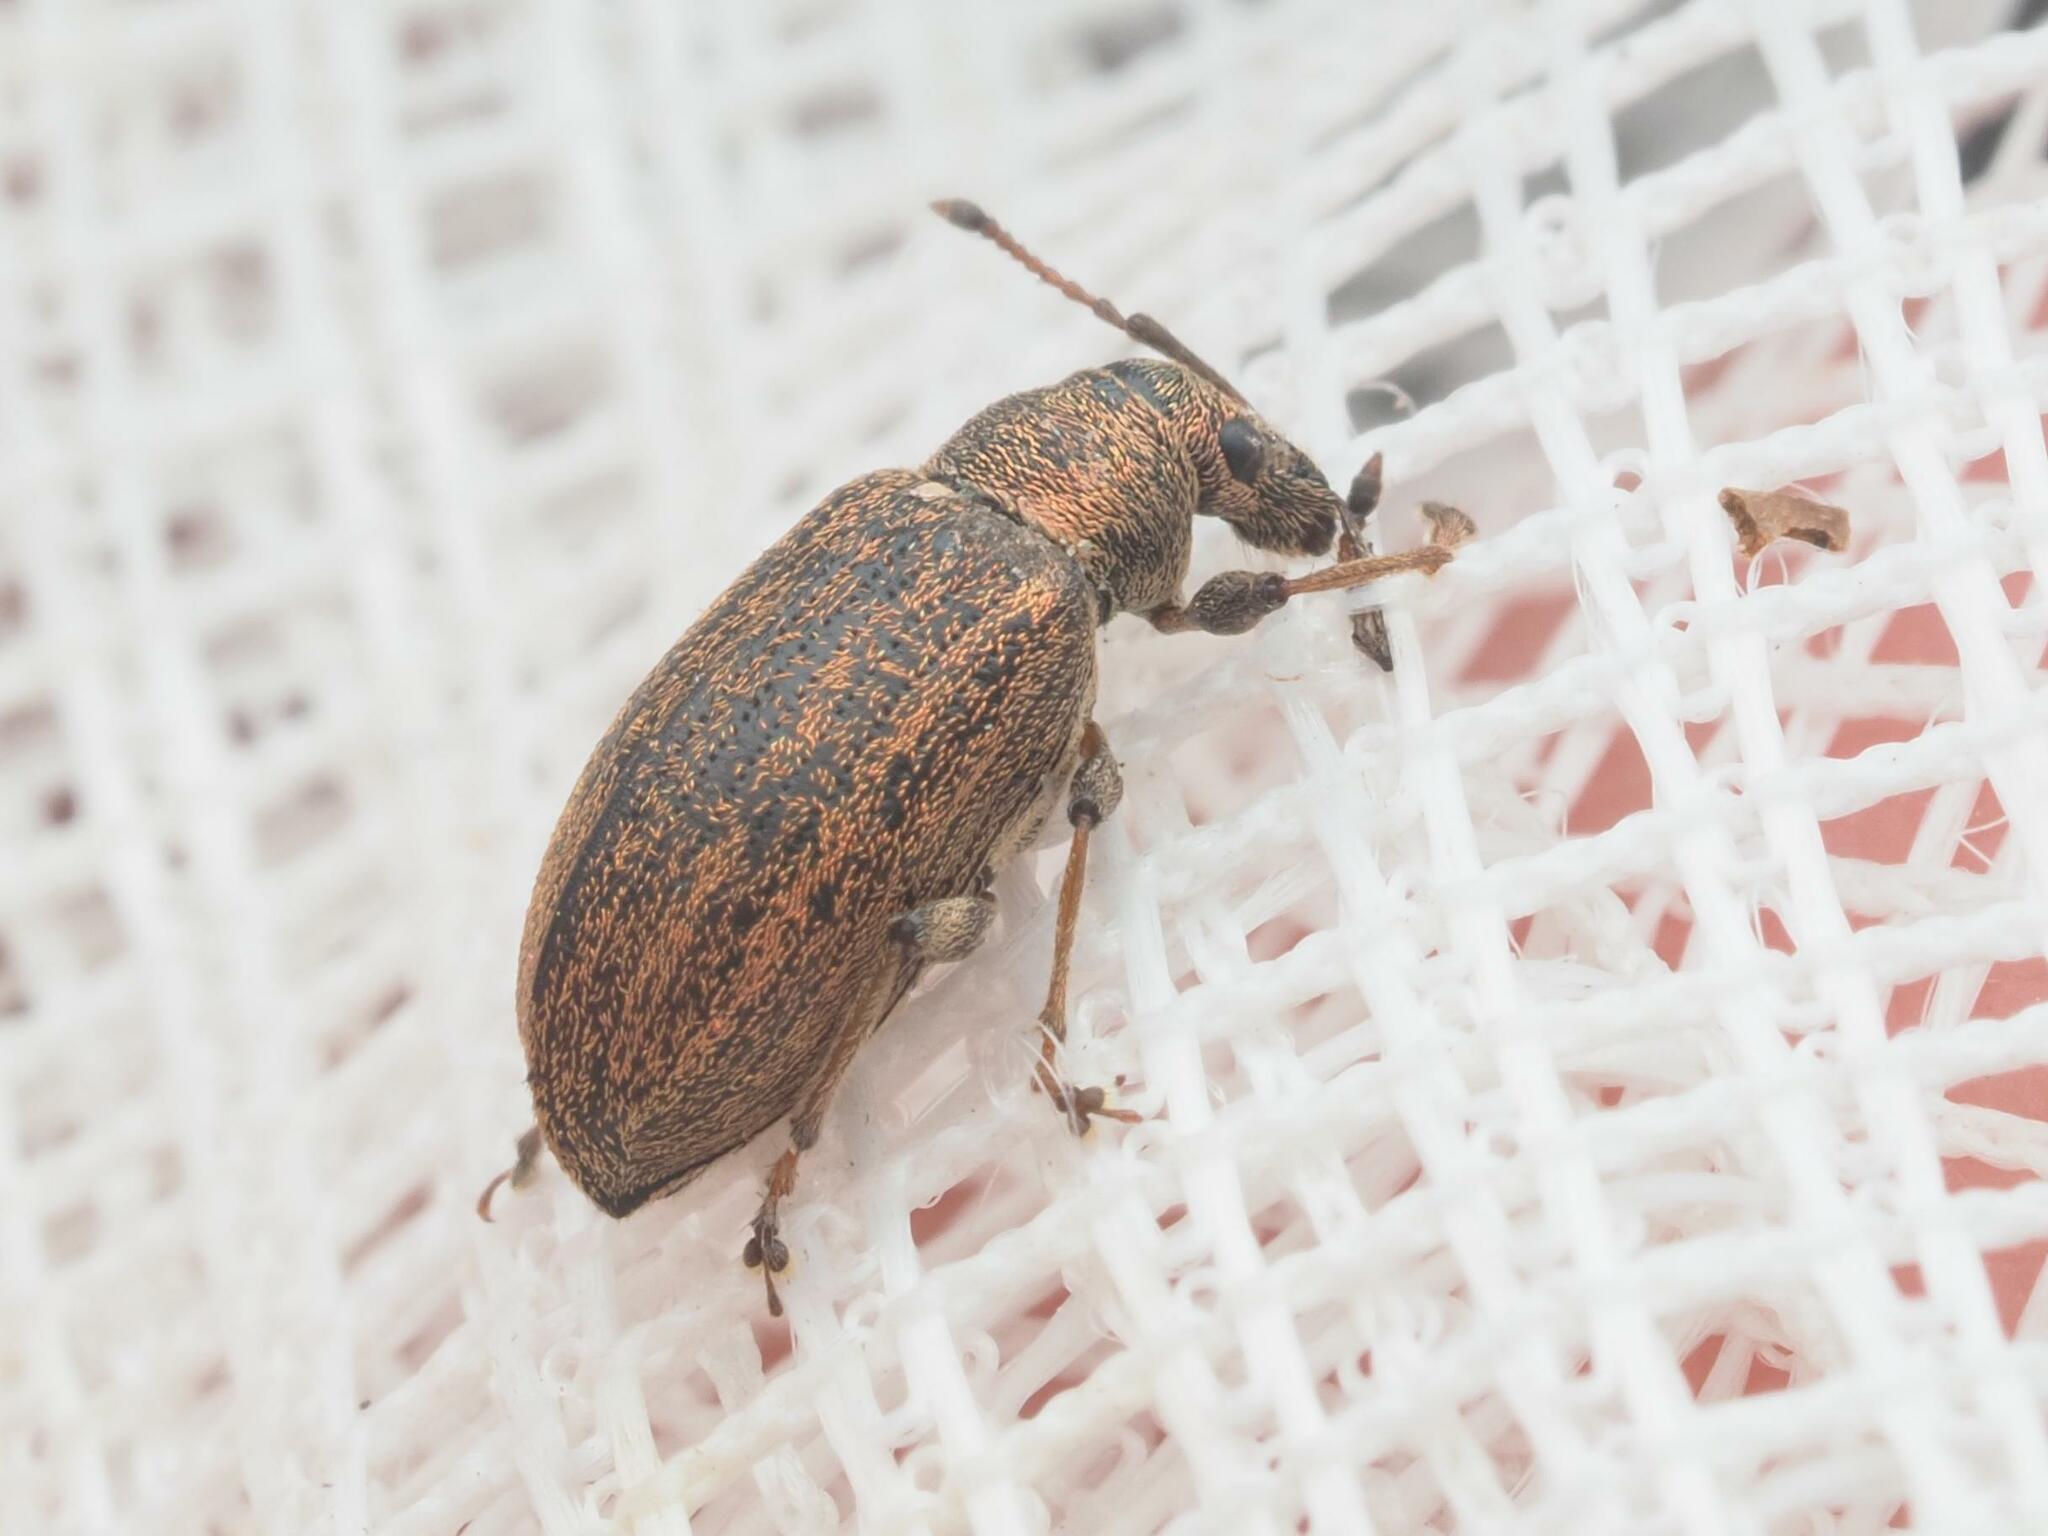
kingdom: Animalia
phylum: Arthropoda
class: Insecta
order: Coleoptera
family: Curculionidae
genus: Phyllobius
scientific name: Phyllobius pyri
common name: Common leaf weevil
